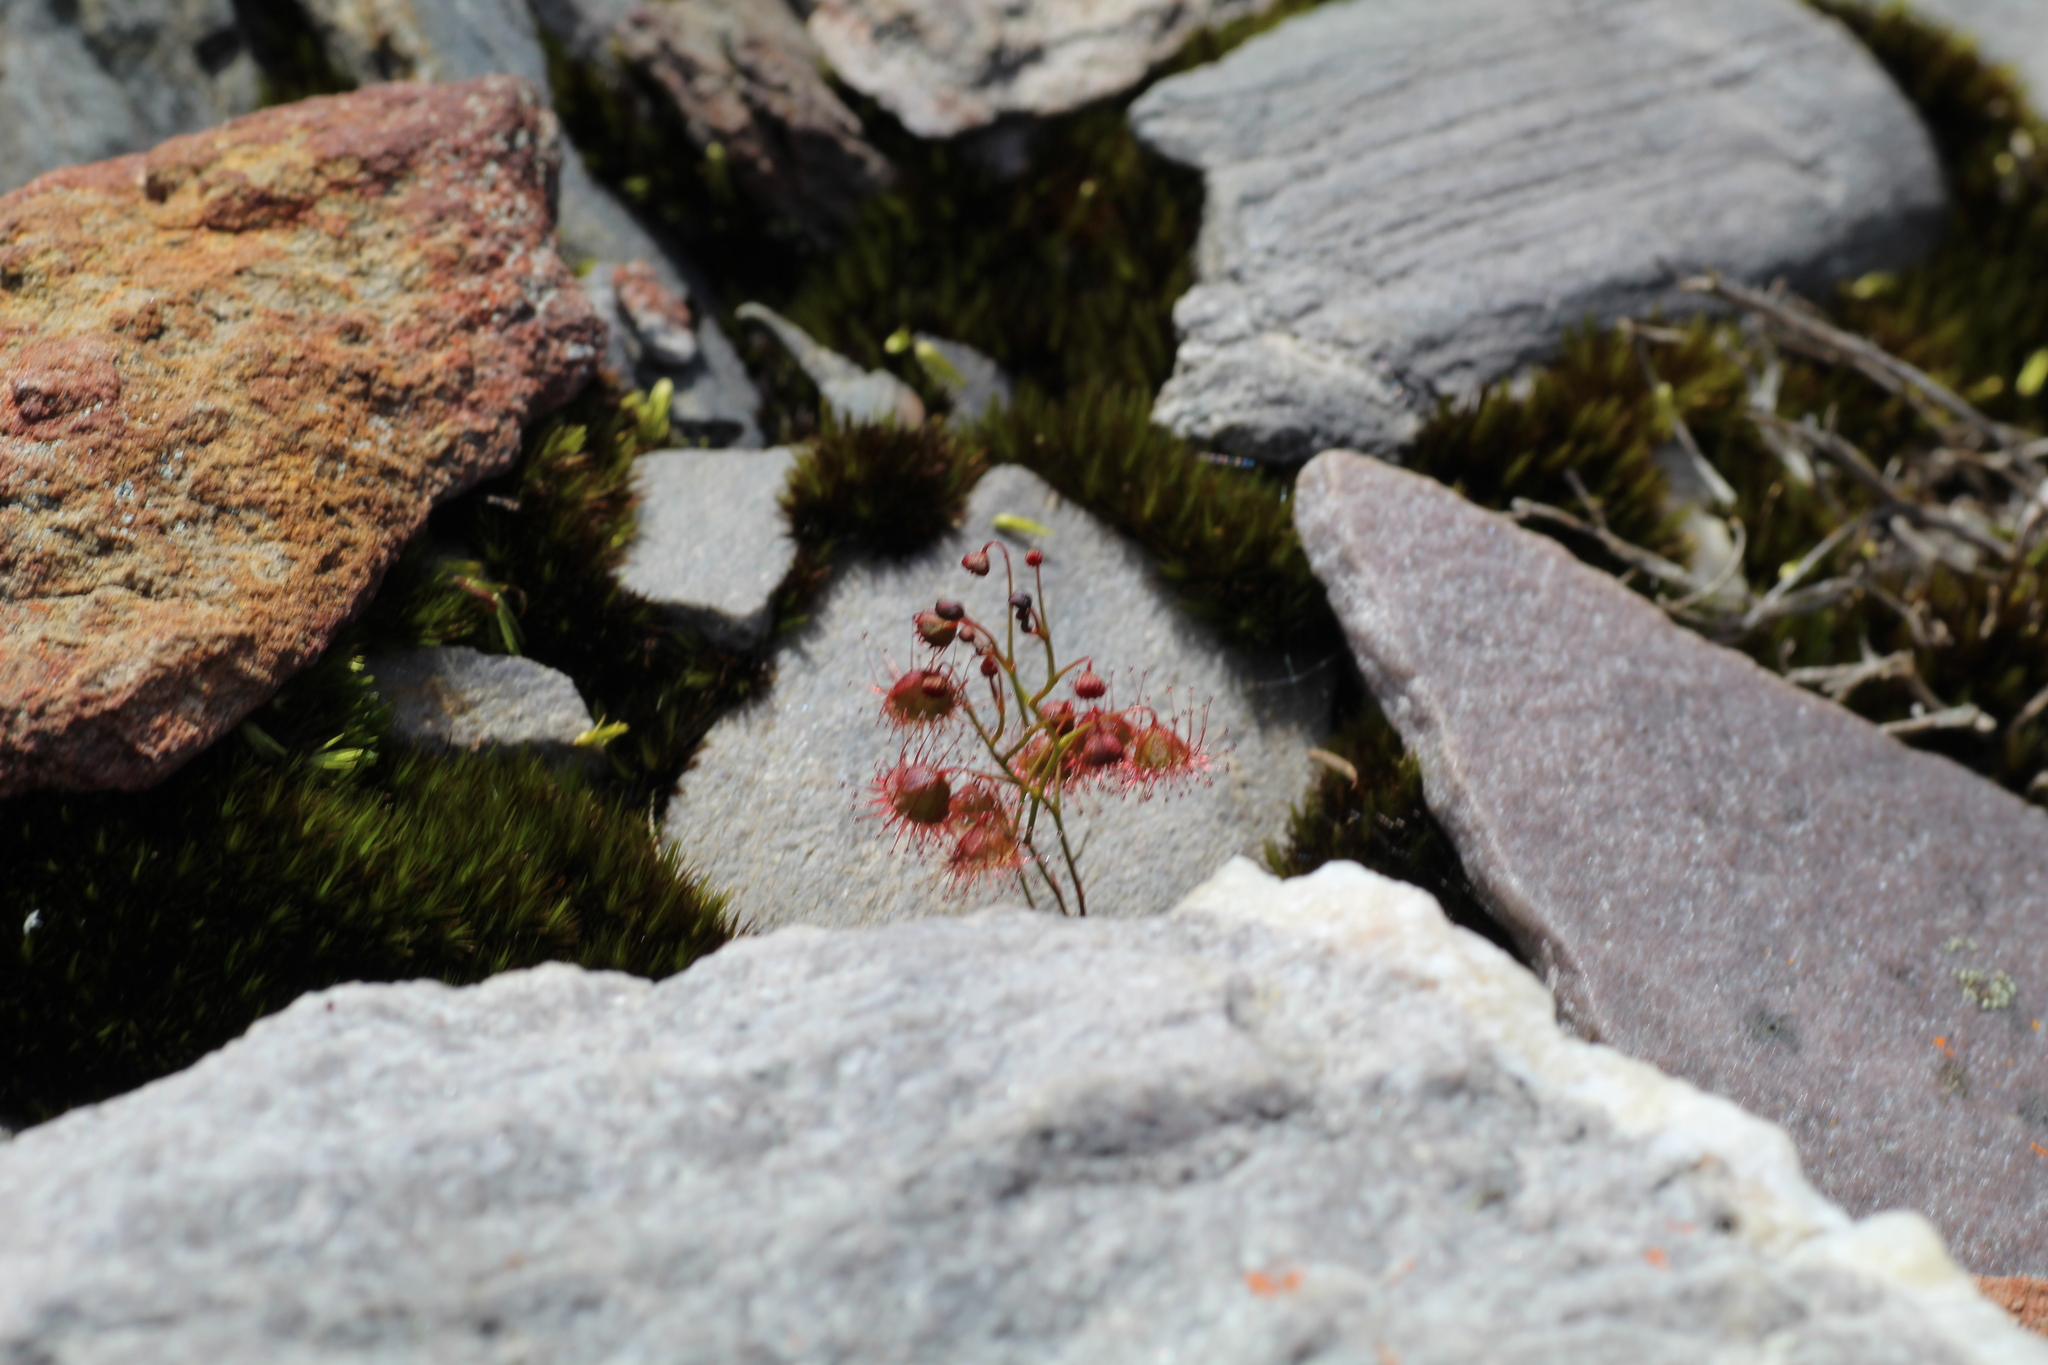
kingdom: Plantae
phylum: Tracheophyta
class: Magnoliopsida
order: Caryophyllales
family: Droseraceae
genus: Drosera
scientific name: Drosera huegelii
